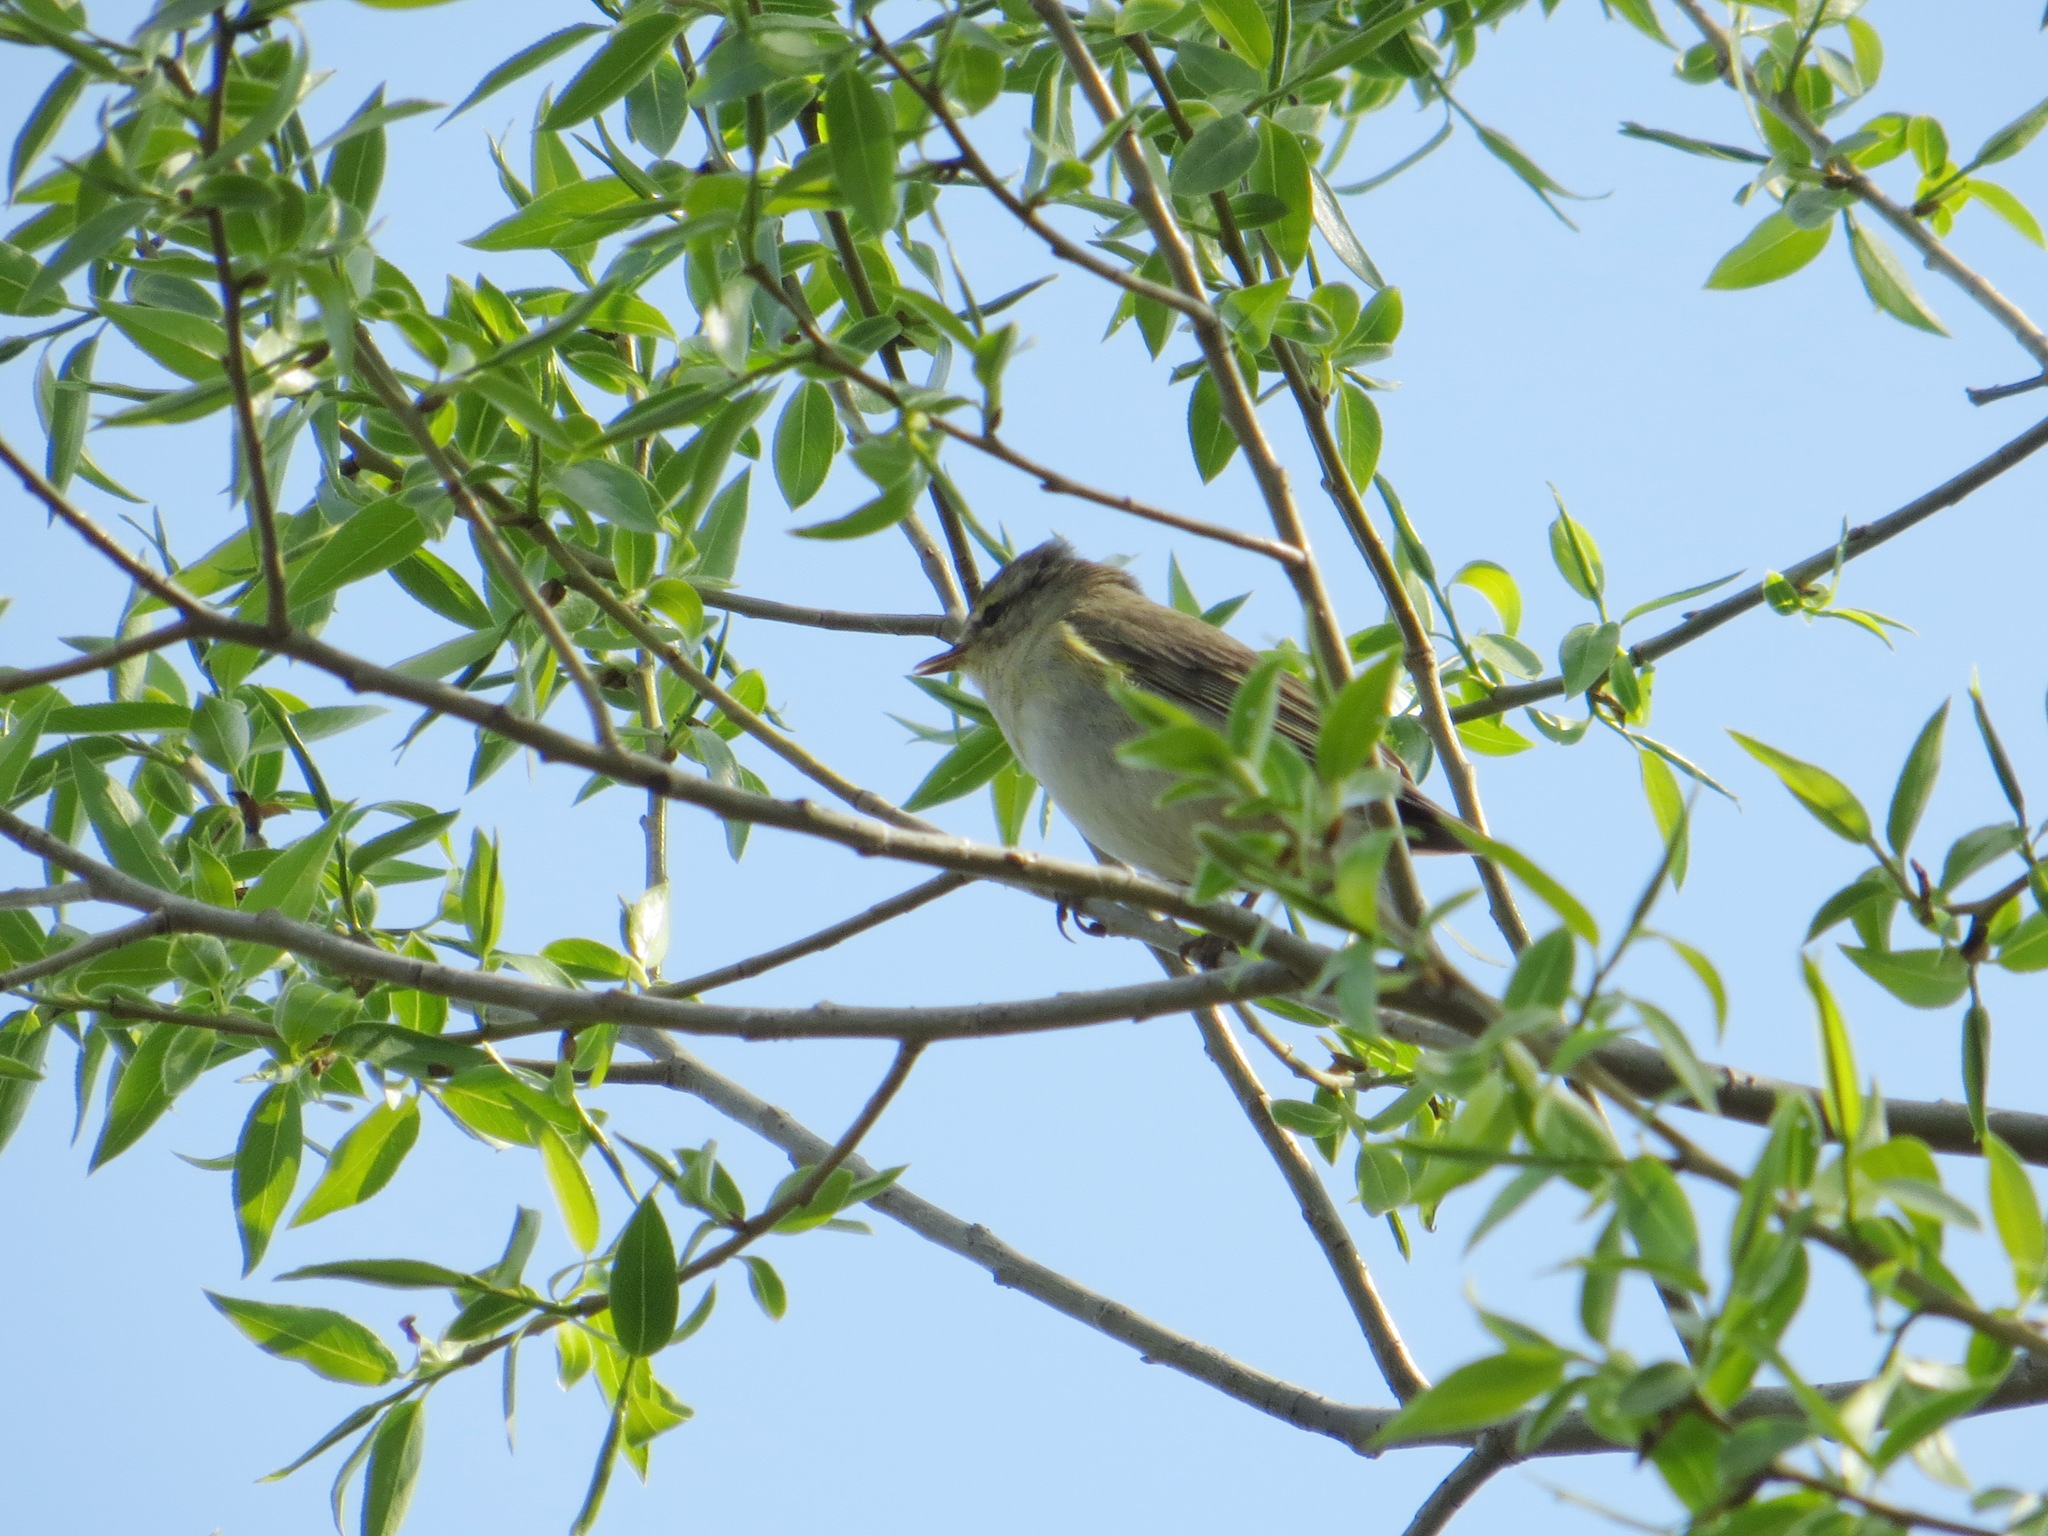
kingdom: Animalia
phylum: Chordata
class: Aves
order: Passeriformes
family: Phylloscopidae
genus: Phylloscopus
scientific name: Phylloscopus trochilus
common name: Willow warbler
